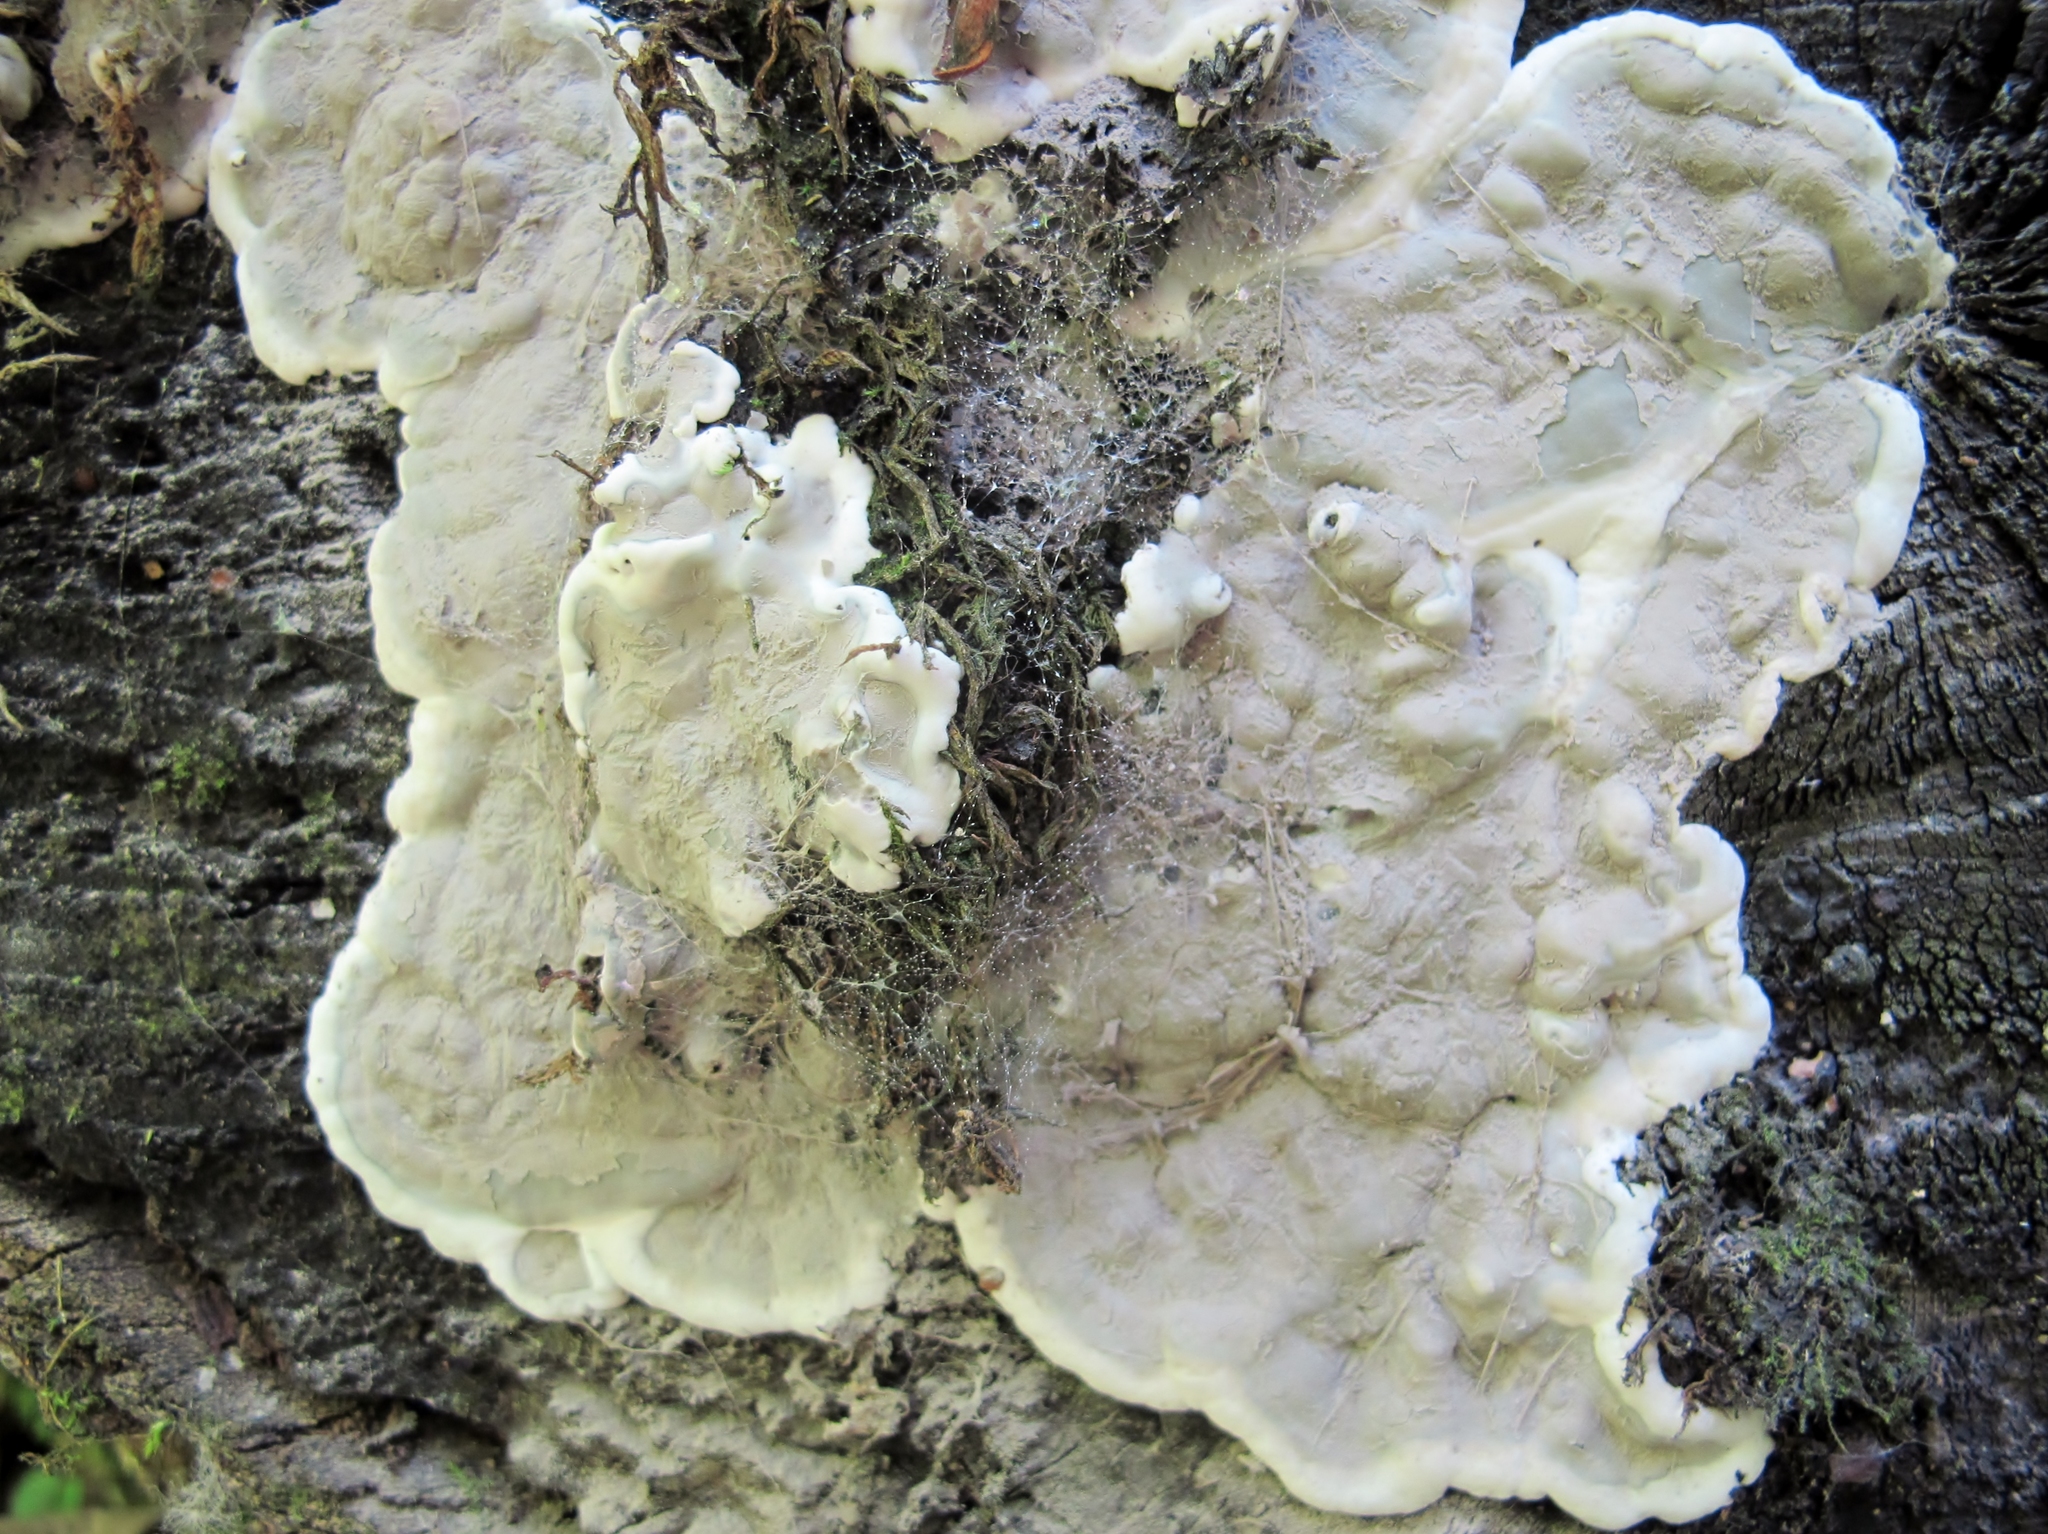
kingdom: Fungi
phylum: Ascomycota
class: Sordariomycetes
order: Xylariales
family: Xylariaceae
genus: Kretzschmaria
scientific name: Kretzschmaria deusta
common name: Brittle cinder
